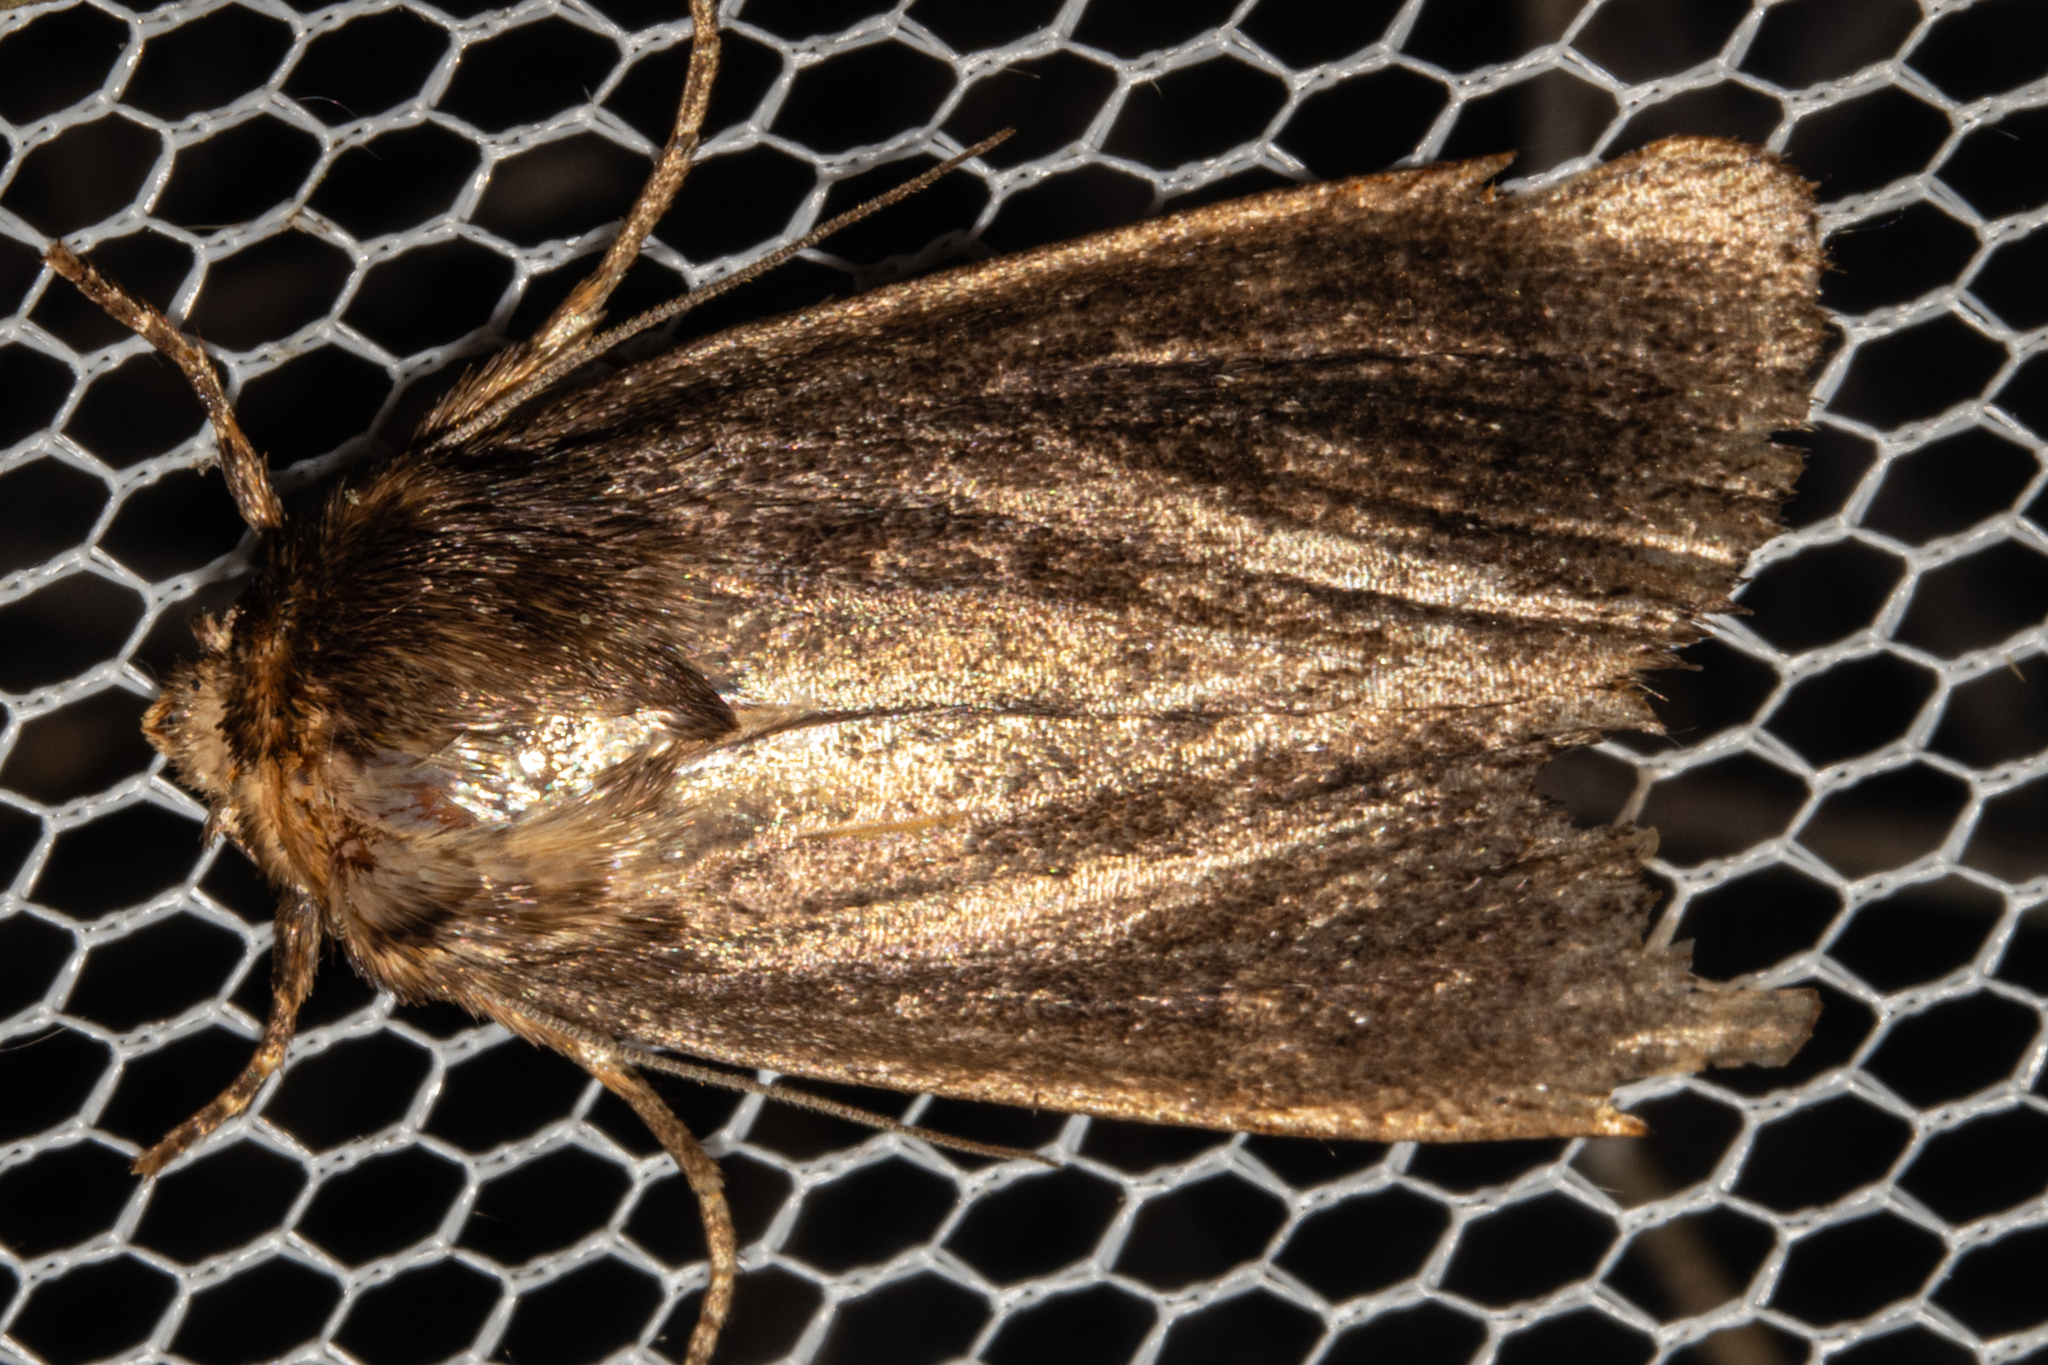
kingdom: Animalia
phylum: Arthropoda
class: Insecta
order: Lepidoptera
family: Noctuidae
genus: Bityla
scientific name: Bityla defigurata
